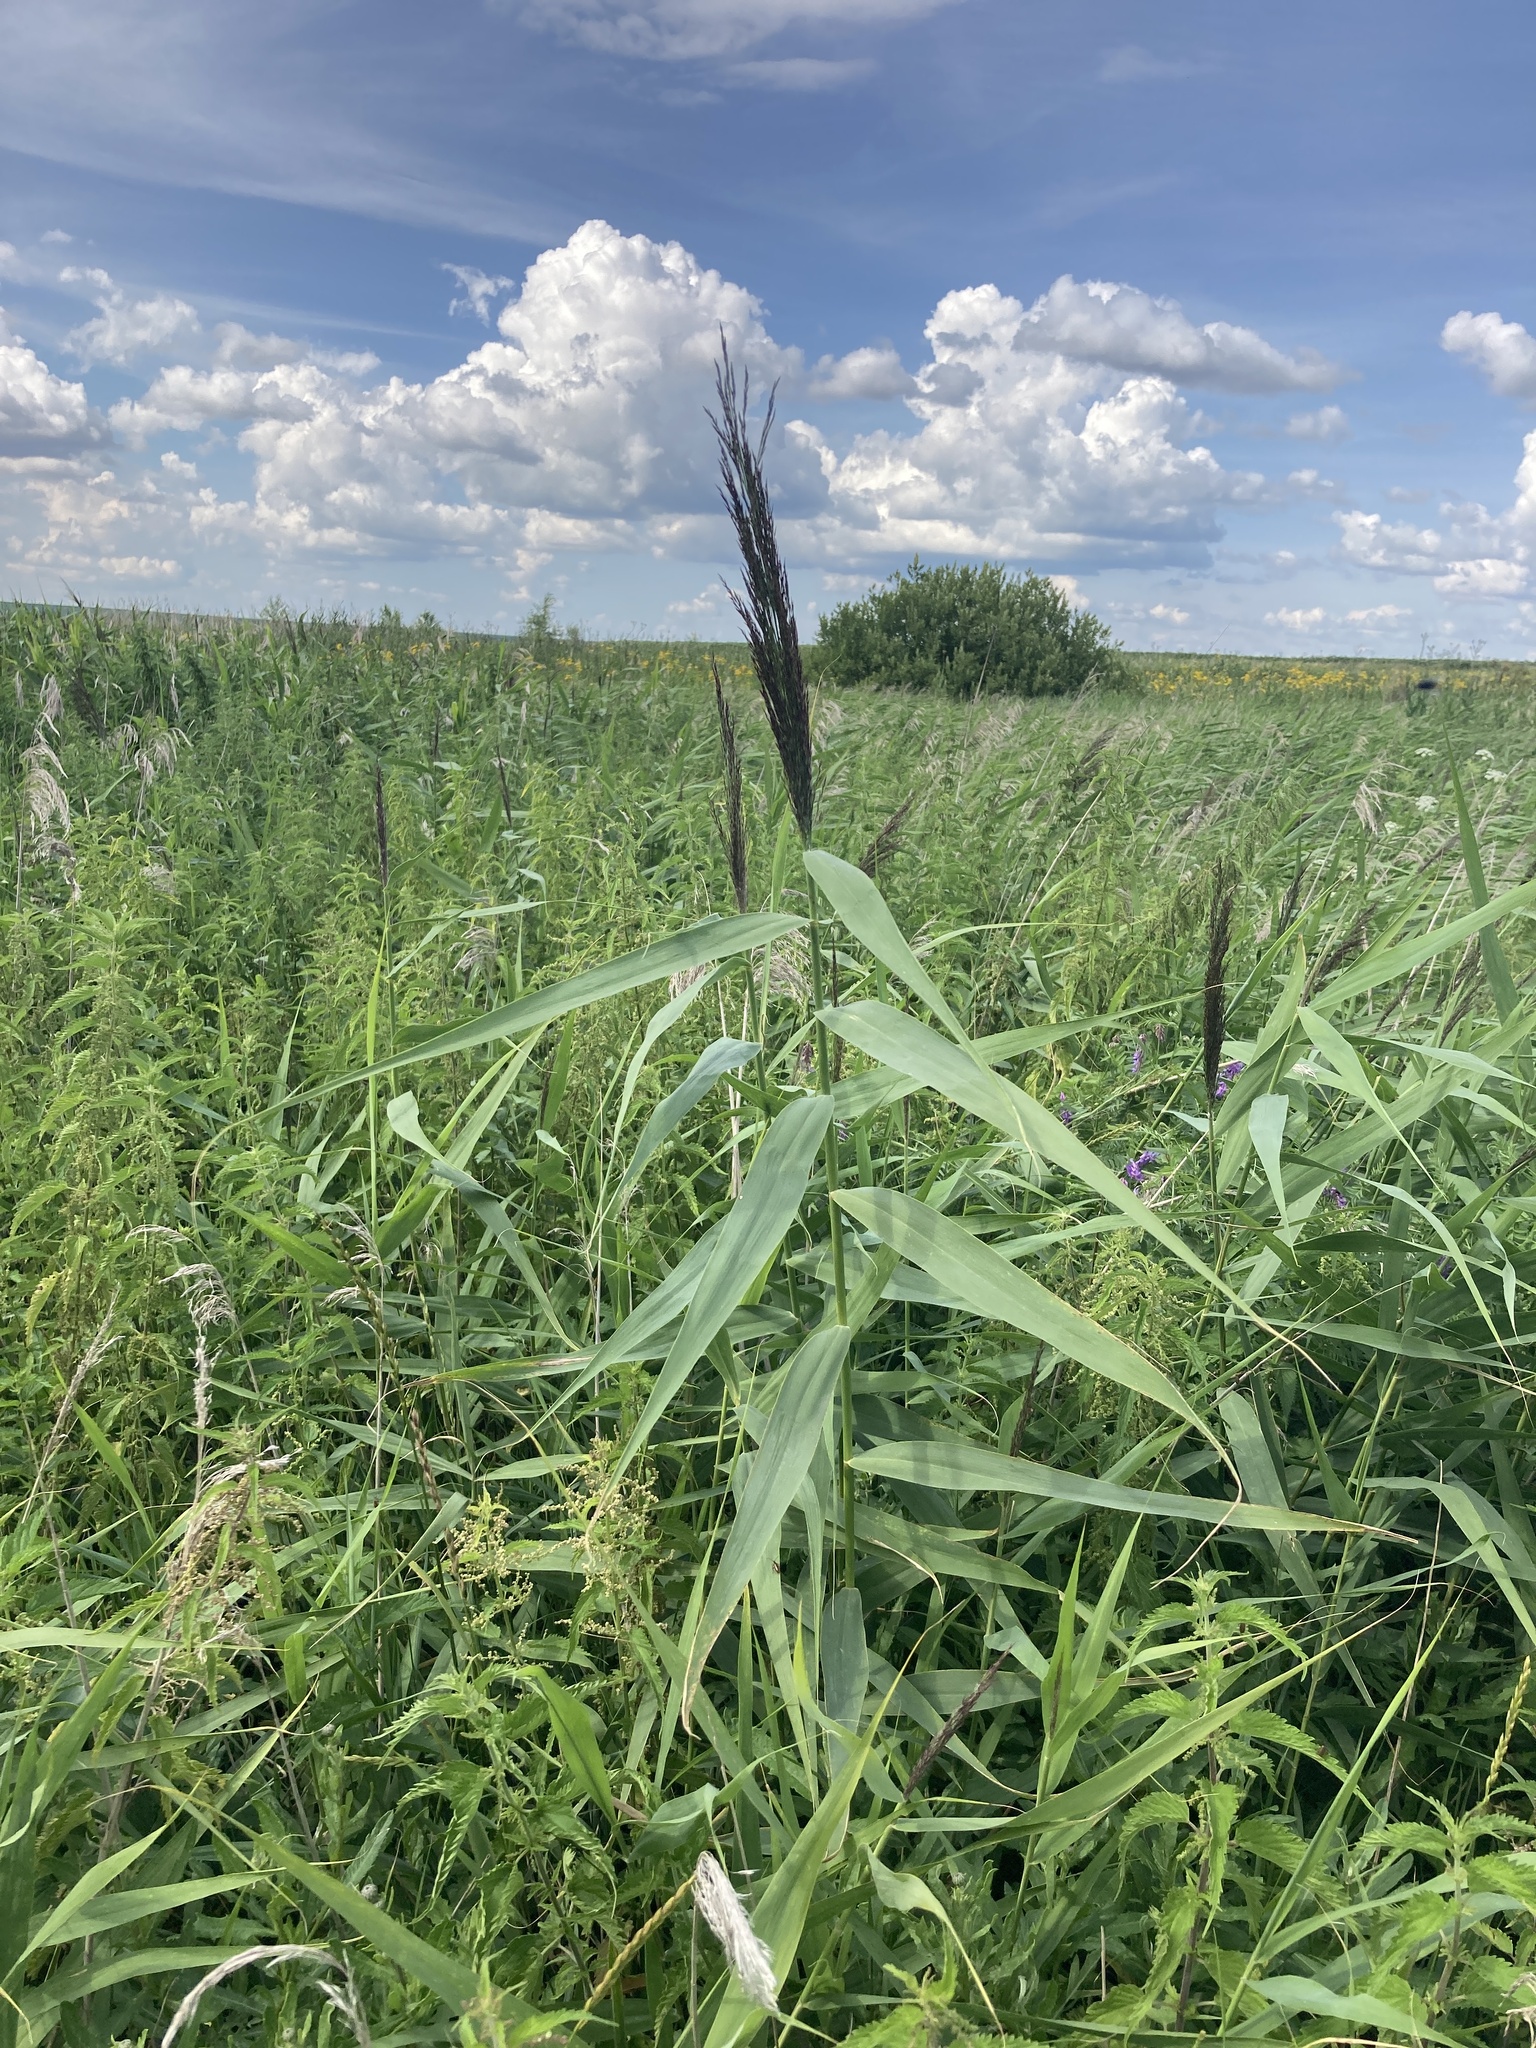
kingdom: Plantae
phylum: Tracheophyta
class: Liliopsida
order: Poales
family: Poaceae
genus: Phragmites
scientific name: Phragmites australis
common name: Common reed
